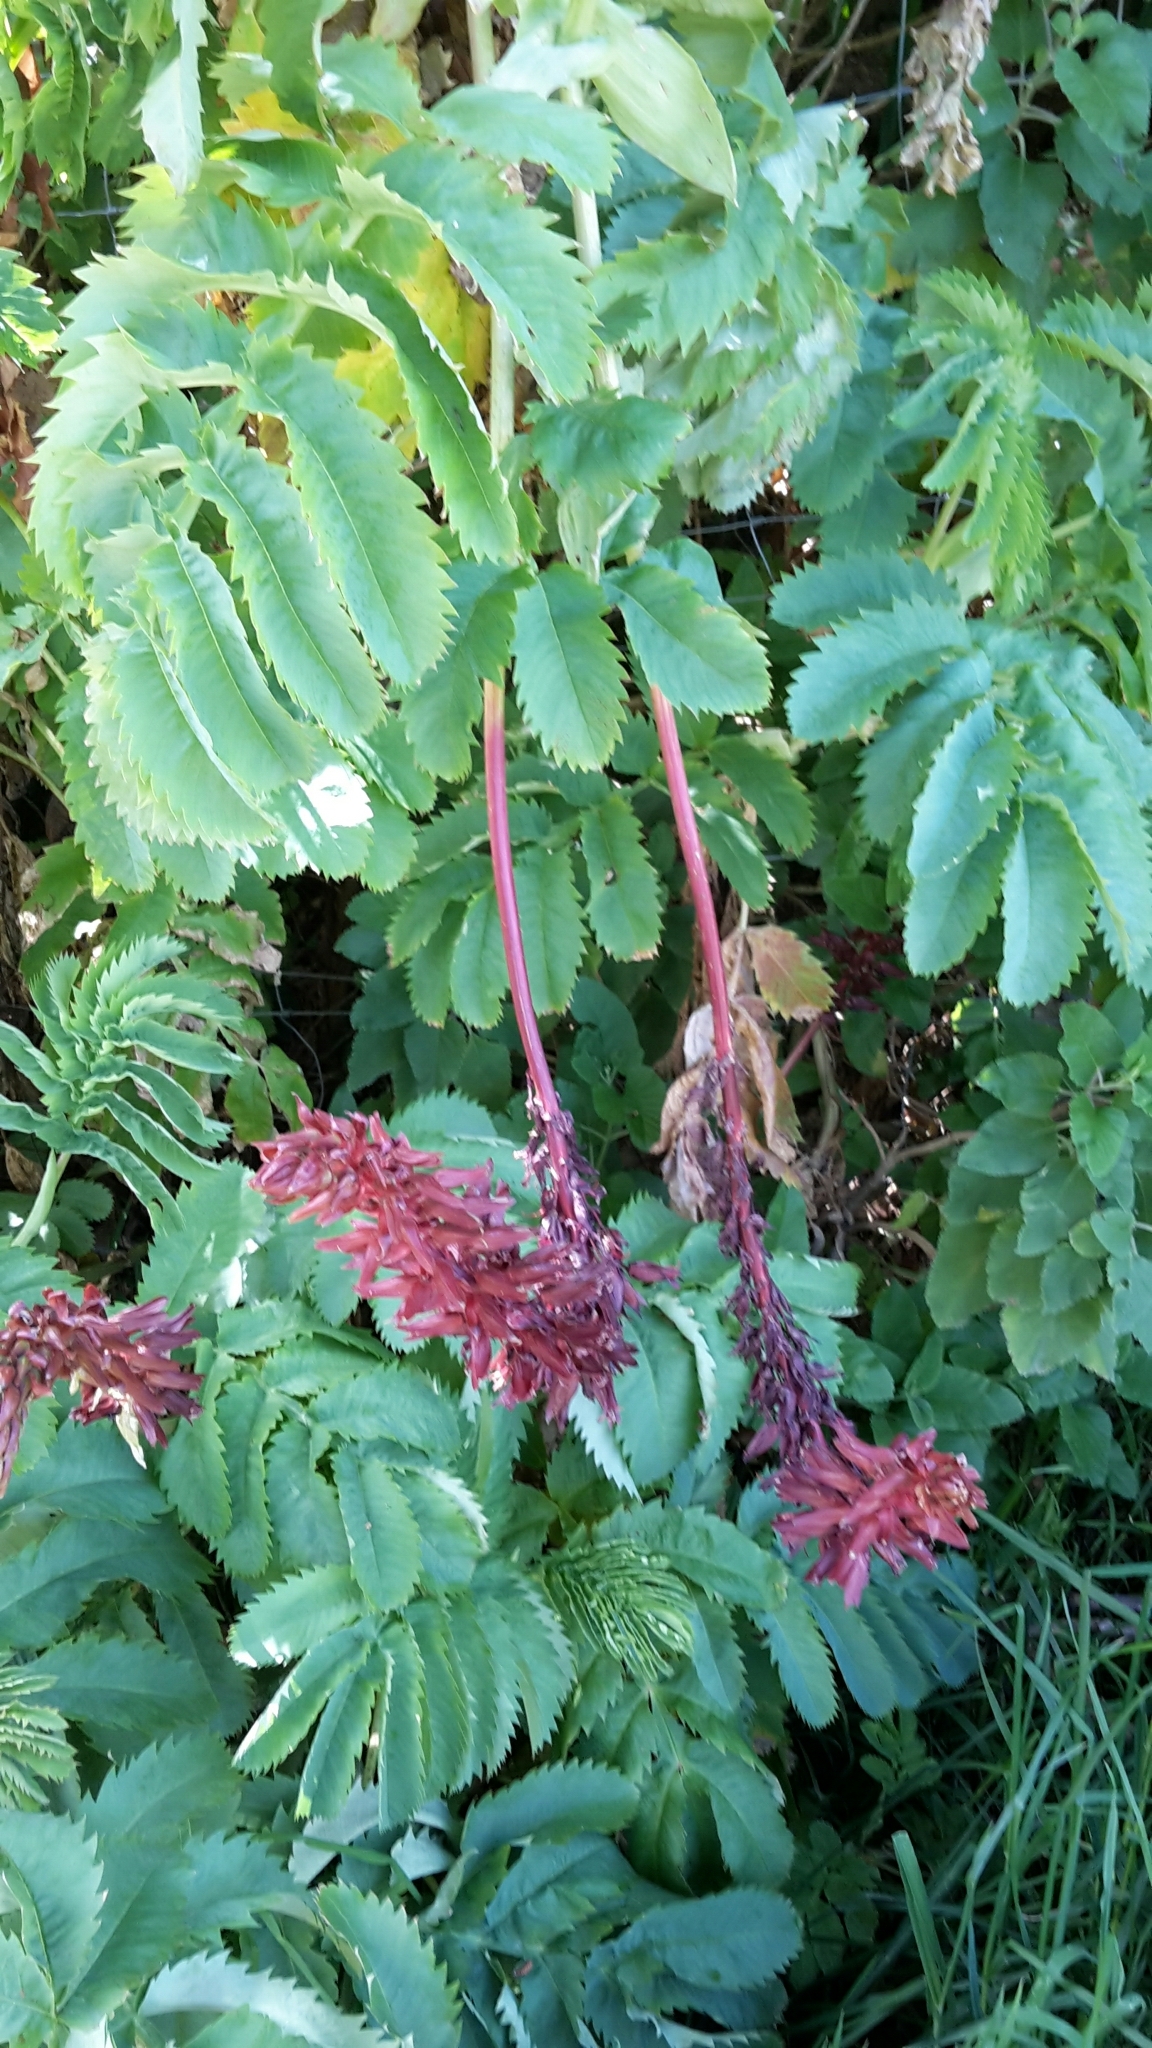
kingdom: Plantae
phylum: Tracheophyta
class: Magnoliopsida
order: Geraniales
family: Melianthaceae
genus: Melianthus
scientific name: Melianthus major
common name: Honey-flower
